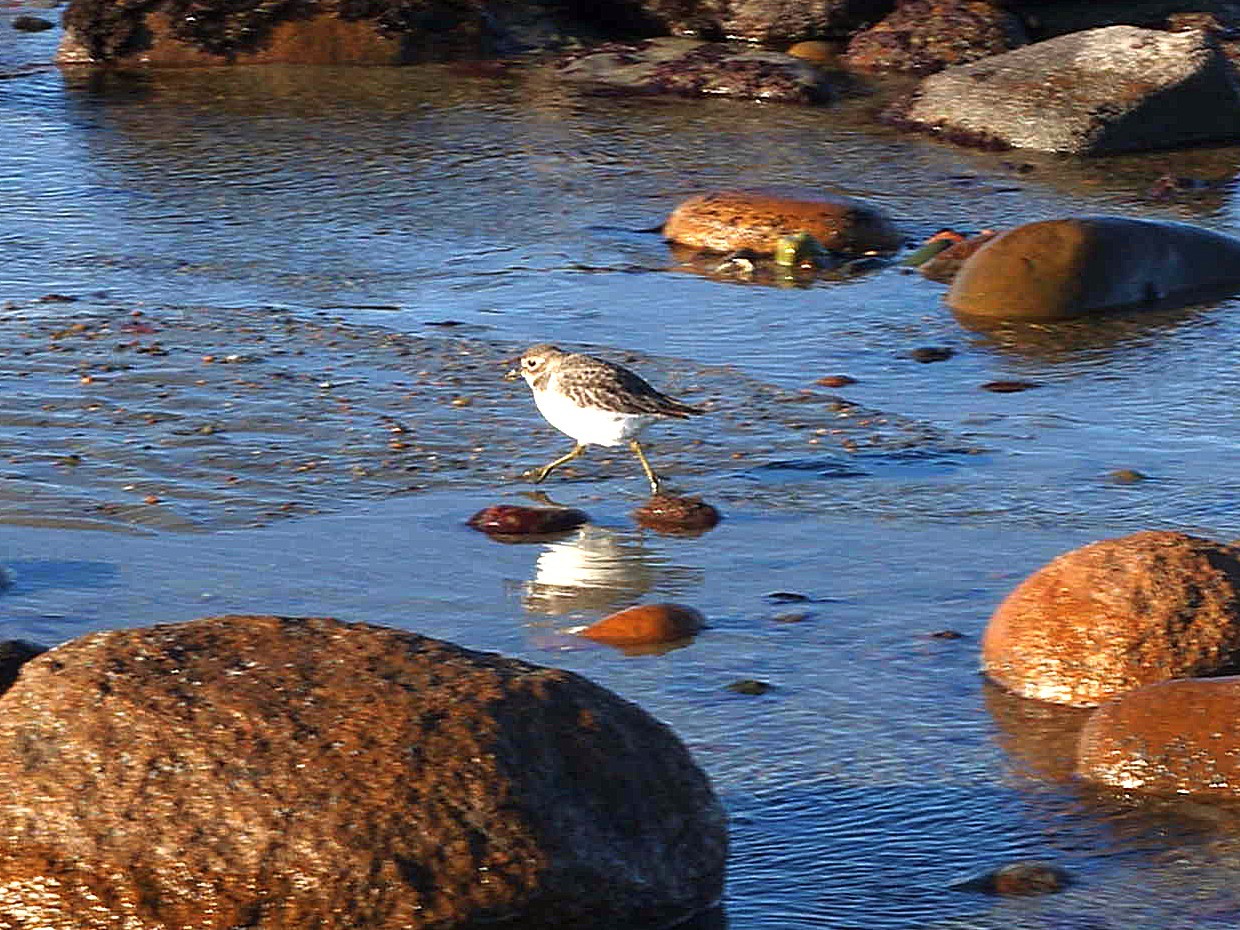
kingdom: Animalia
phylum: Chordata
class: Aves
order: Charadriiformes
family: Charadriidae
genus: Anarhynchus
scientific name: Anarhynchus
